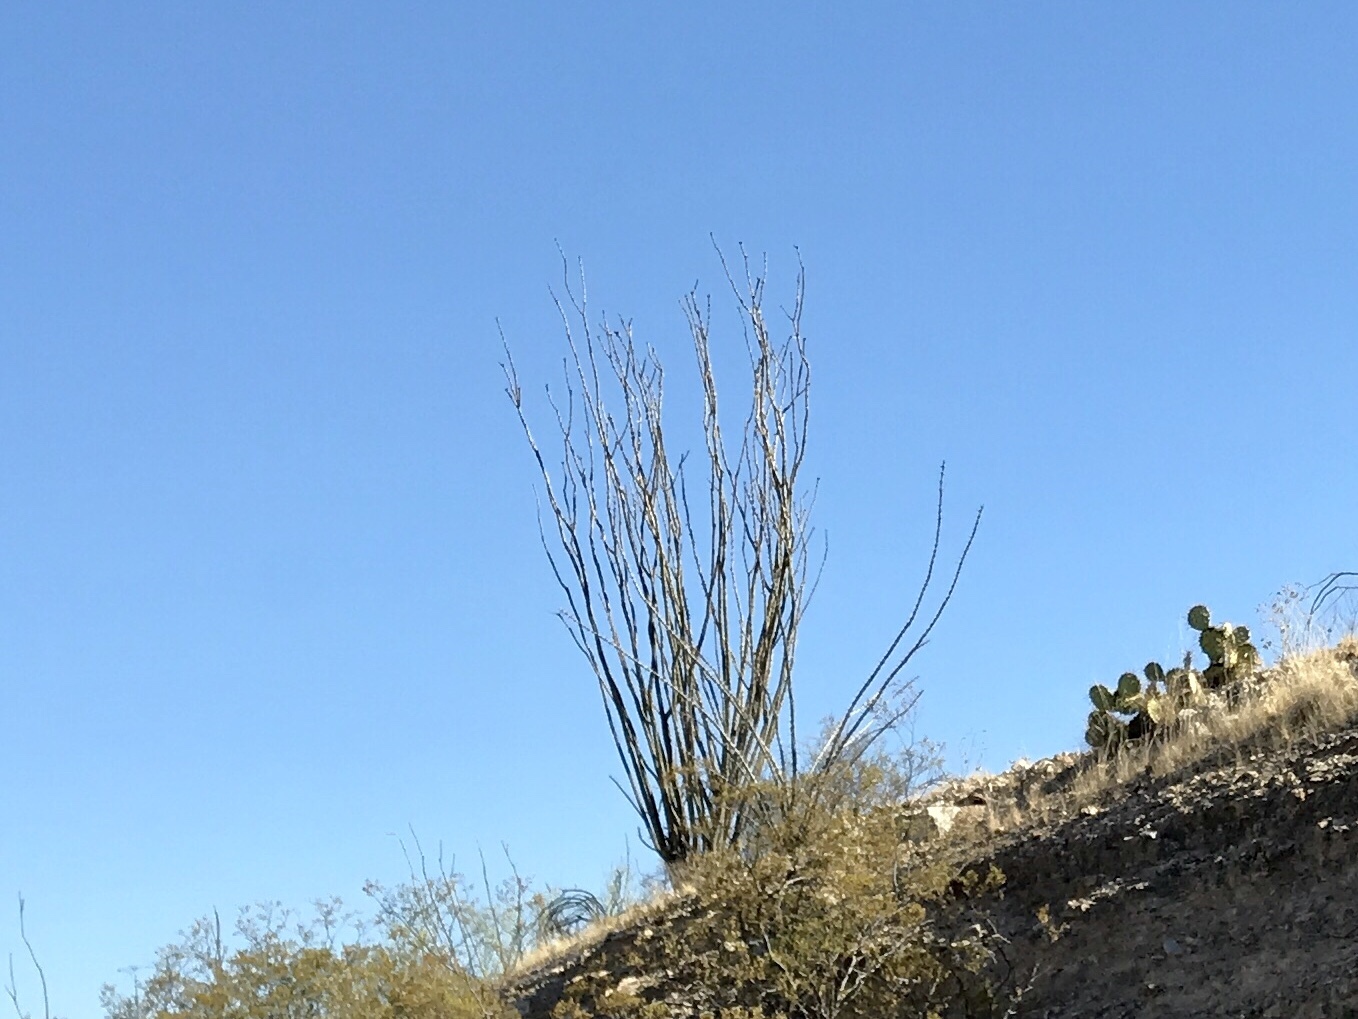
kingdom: Plantae
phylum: Tracheophyta
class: Magnoliopsida
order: Ericales
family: Fouquieriaceae
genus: Fouquieria
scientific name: Fouquieria splendens
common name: Vine-cactus
